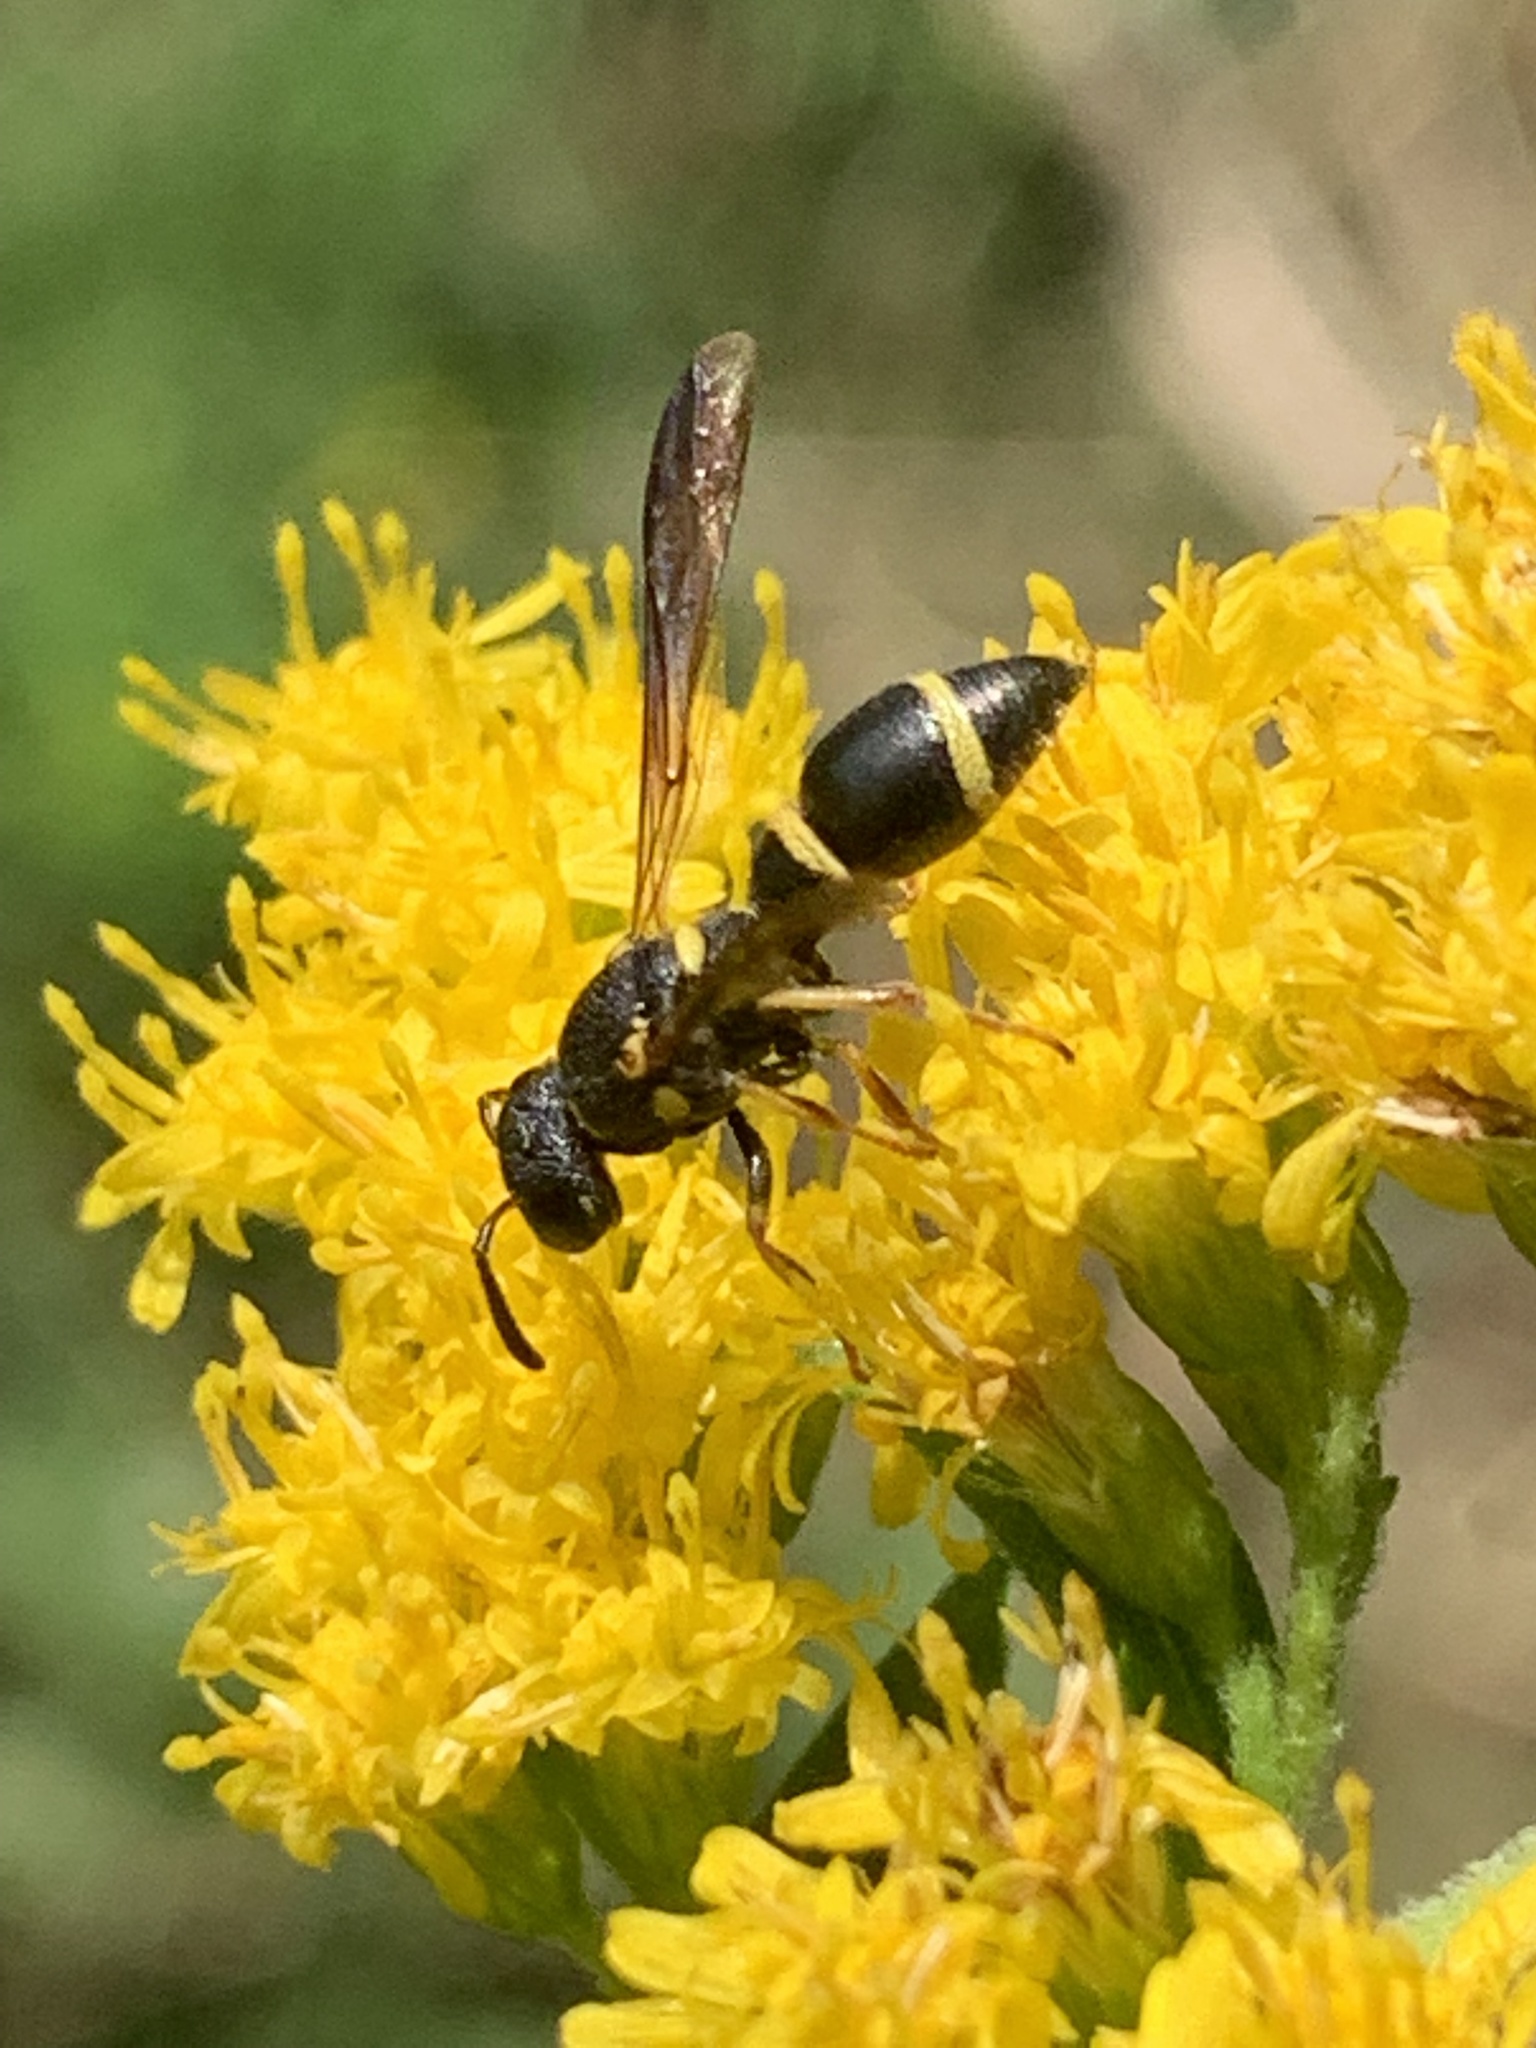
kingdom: Animalia
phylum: Arthropoda
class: Insecta
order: Hymenoptera
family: Eumenidae
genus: Parancistrocerus
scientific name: Parancistrocerus perennis
